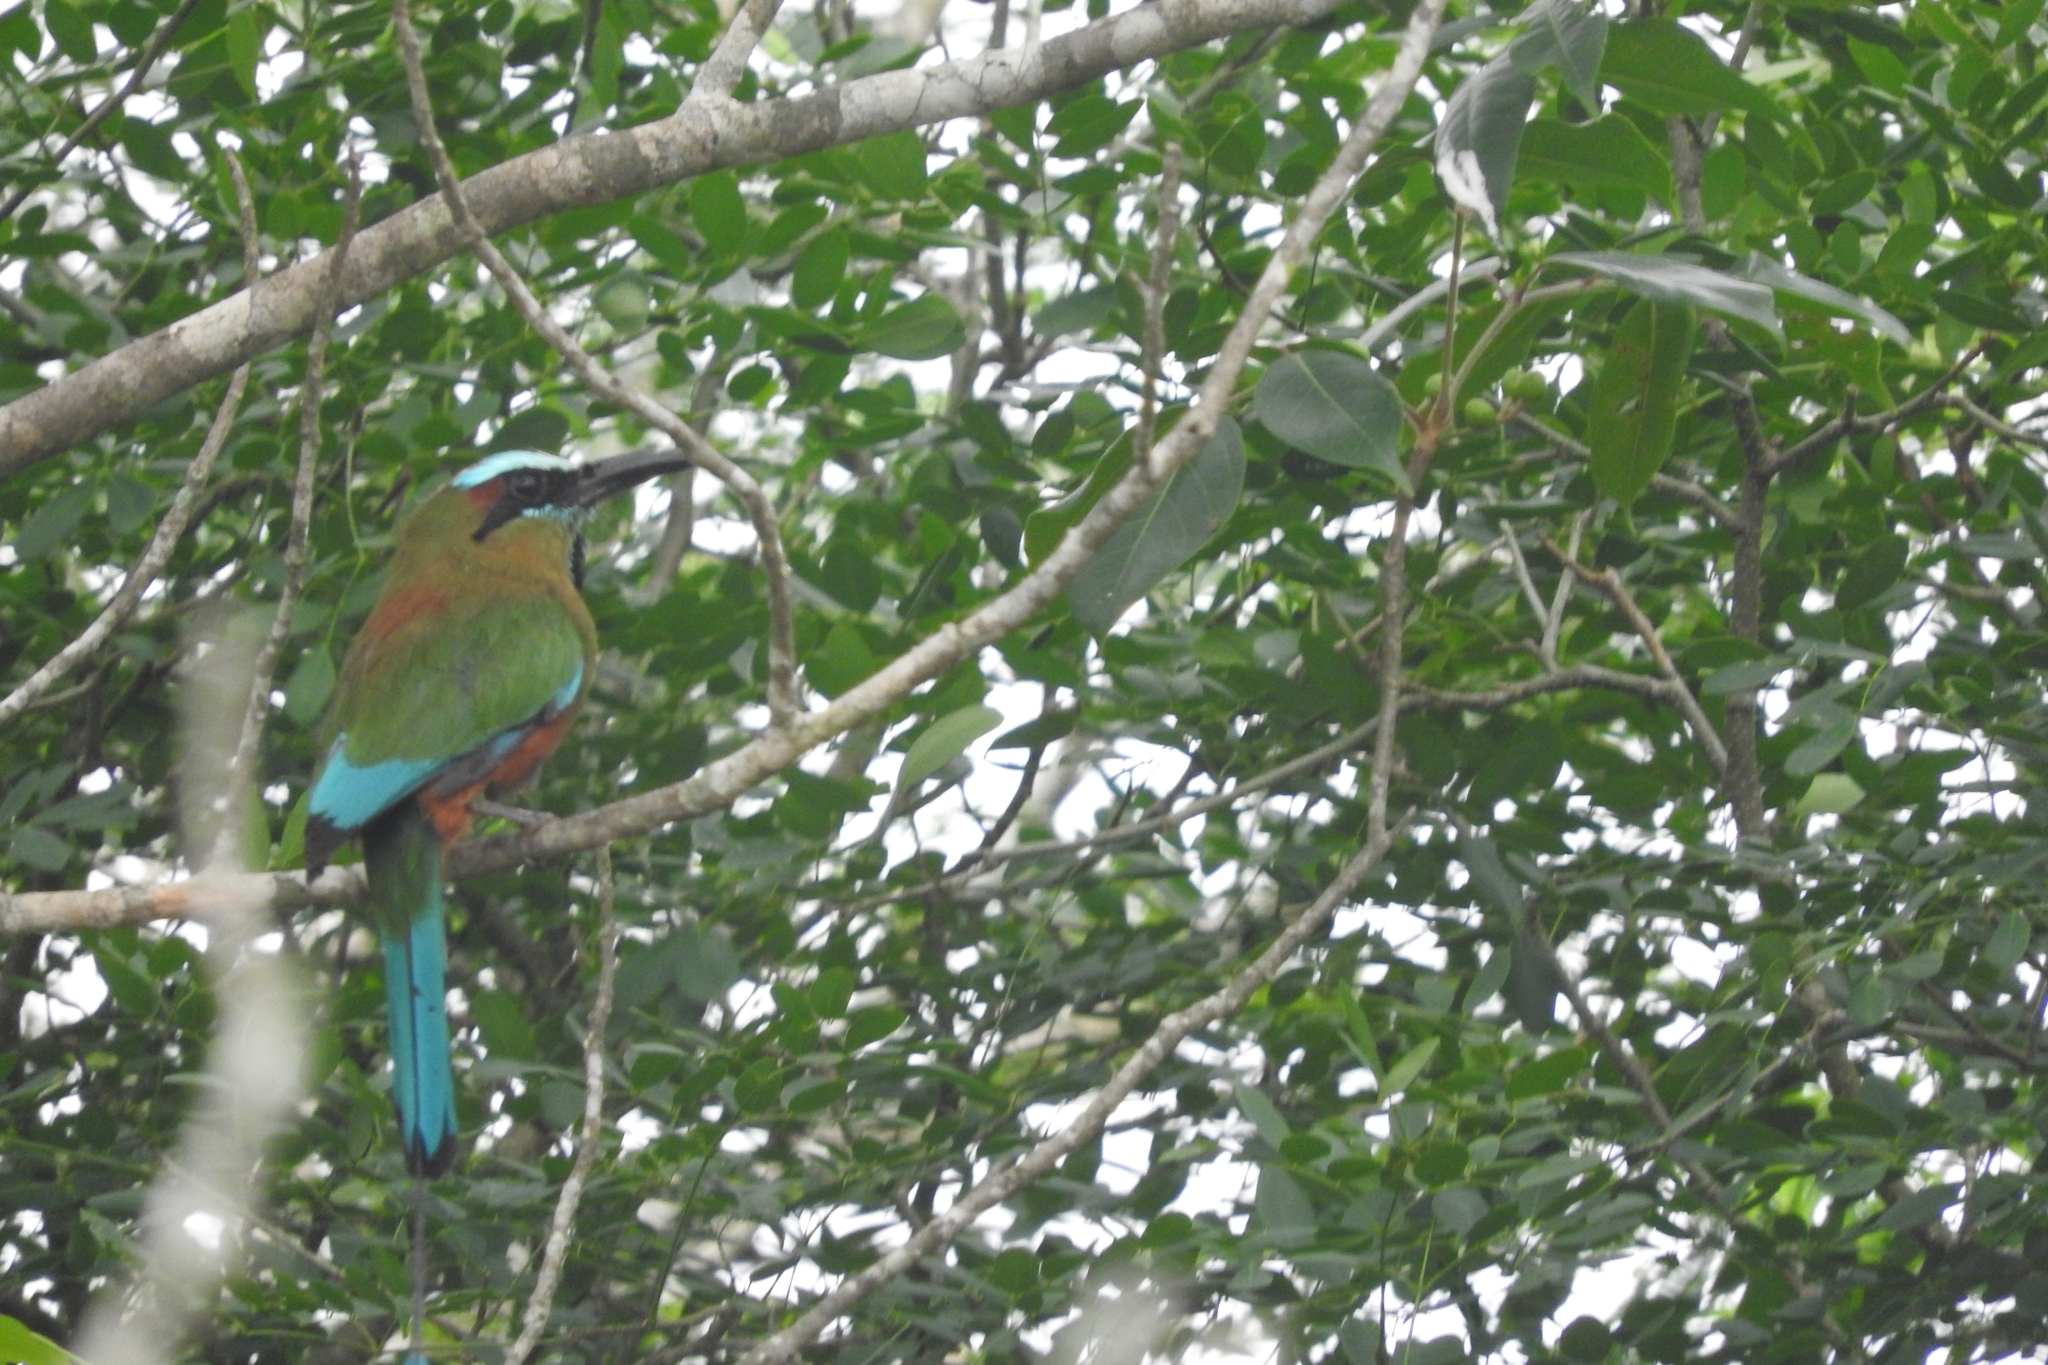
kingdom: Animalia
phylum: Chordata
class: Aves
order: Coraciiformes
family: Momotidae
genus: Eumomota
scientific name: Eumomota superciliosa
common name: Turquoise-browed motmot
